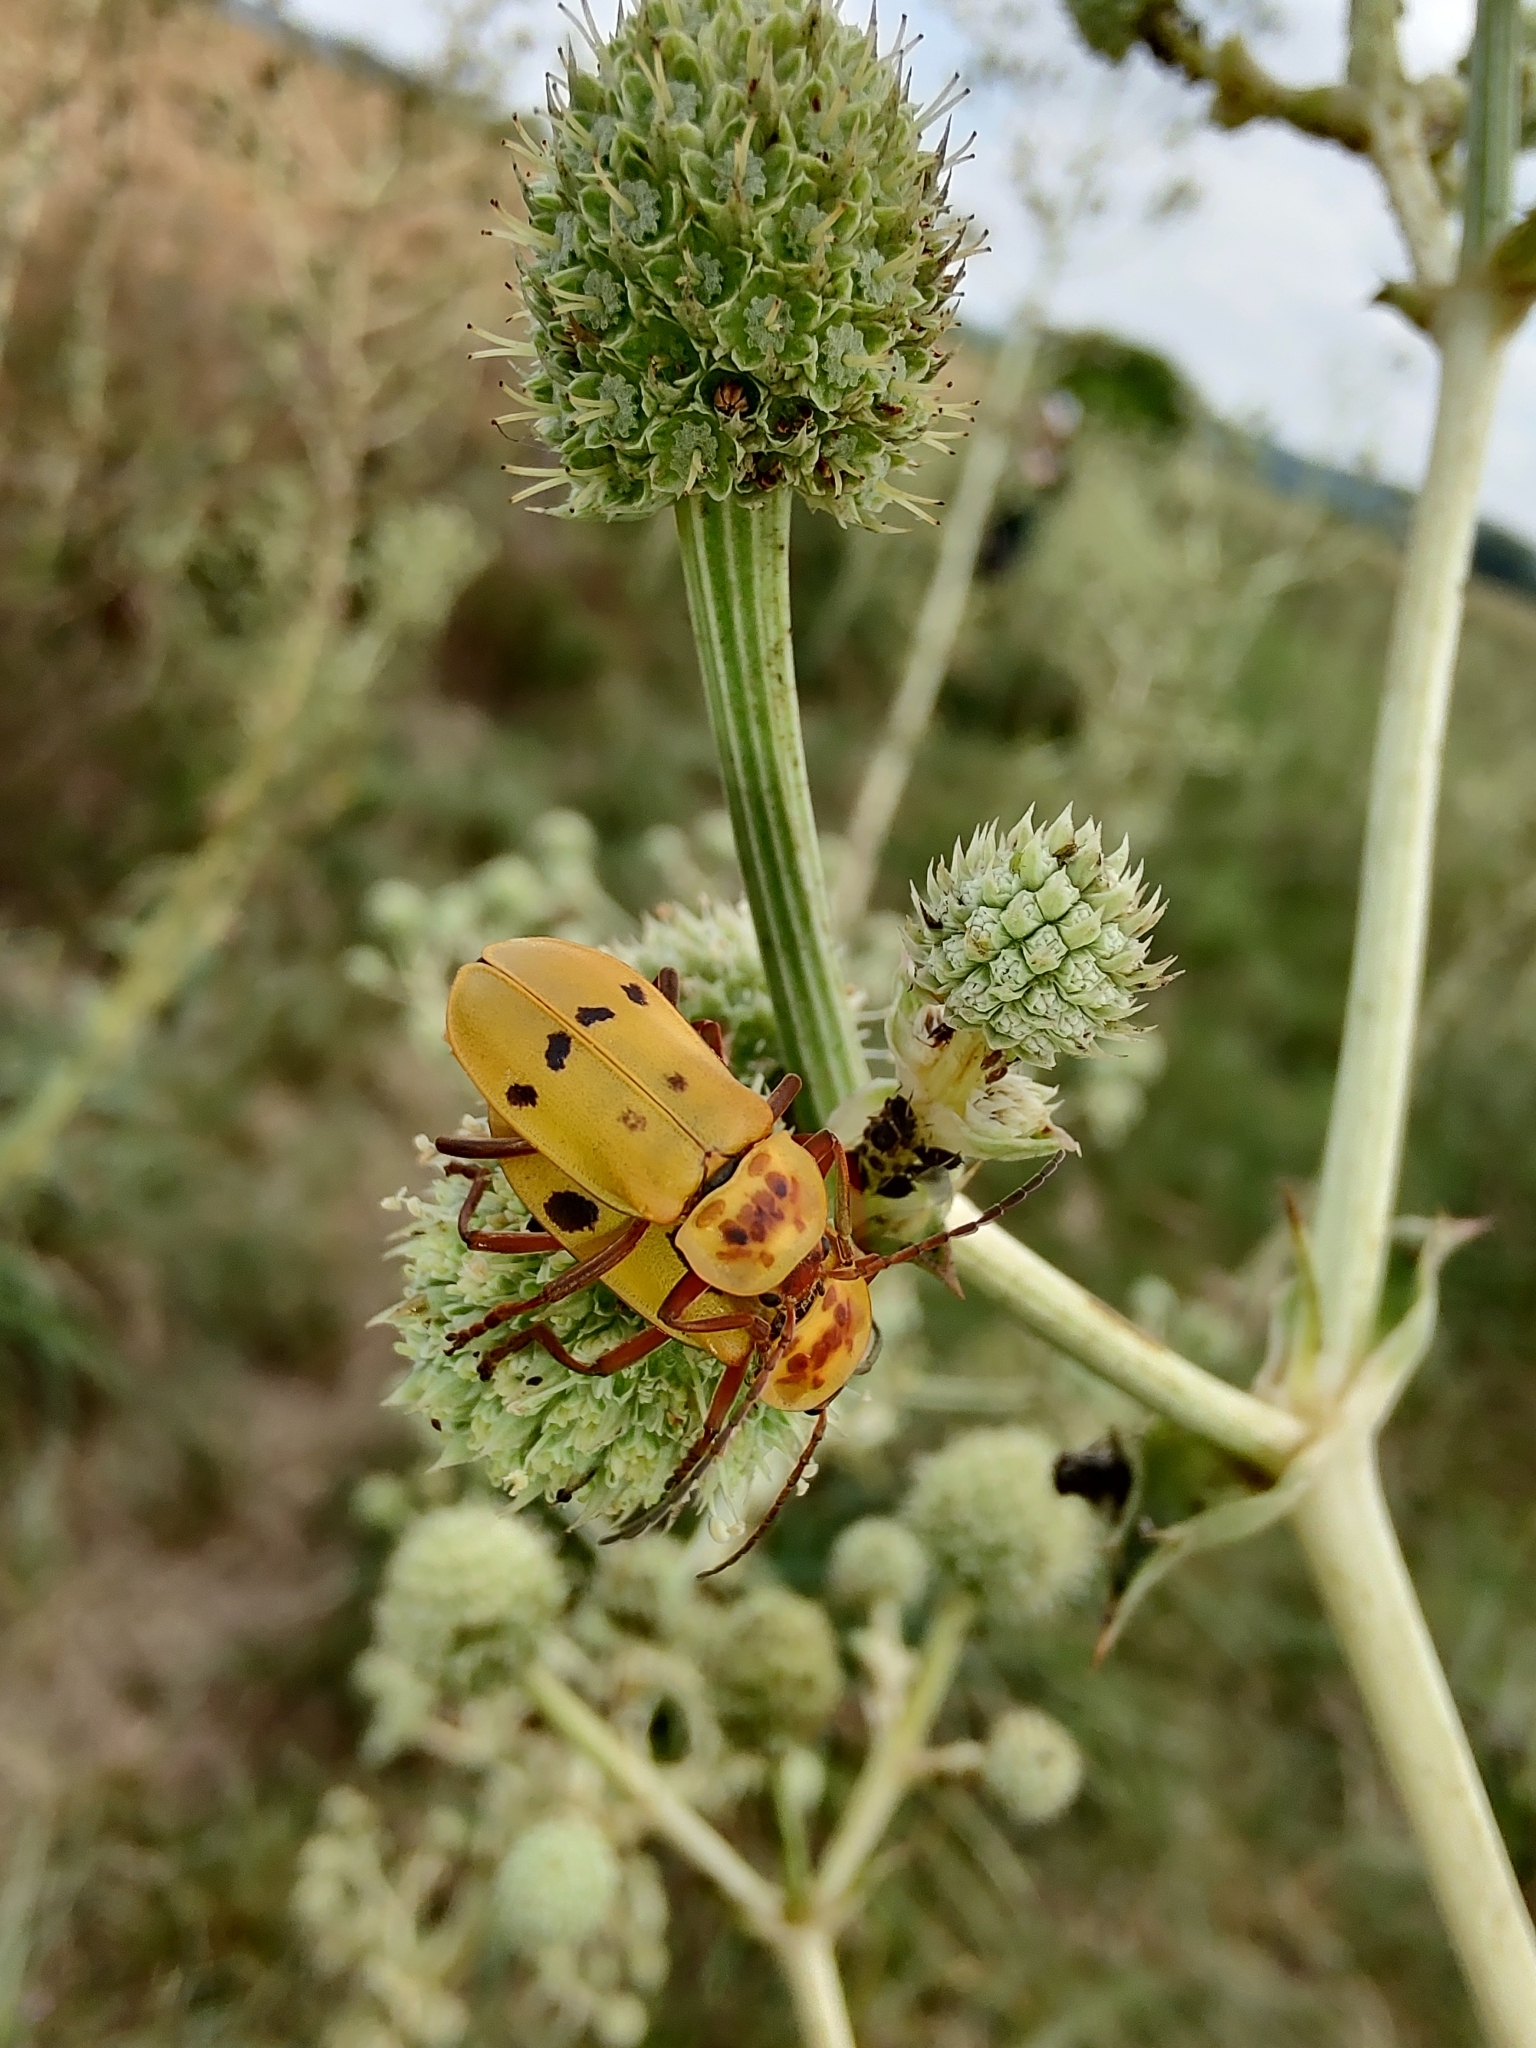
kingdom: Animalia
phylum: Arthropoda
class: Insecta
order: Coleoptera
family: Cantharidae
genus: Chauliognathus
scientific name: Chauliognathus
